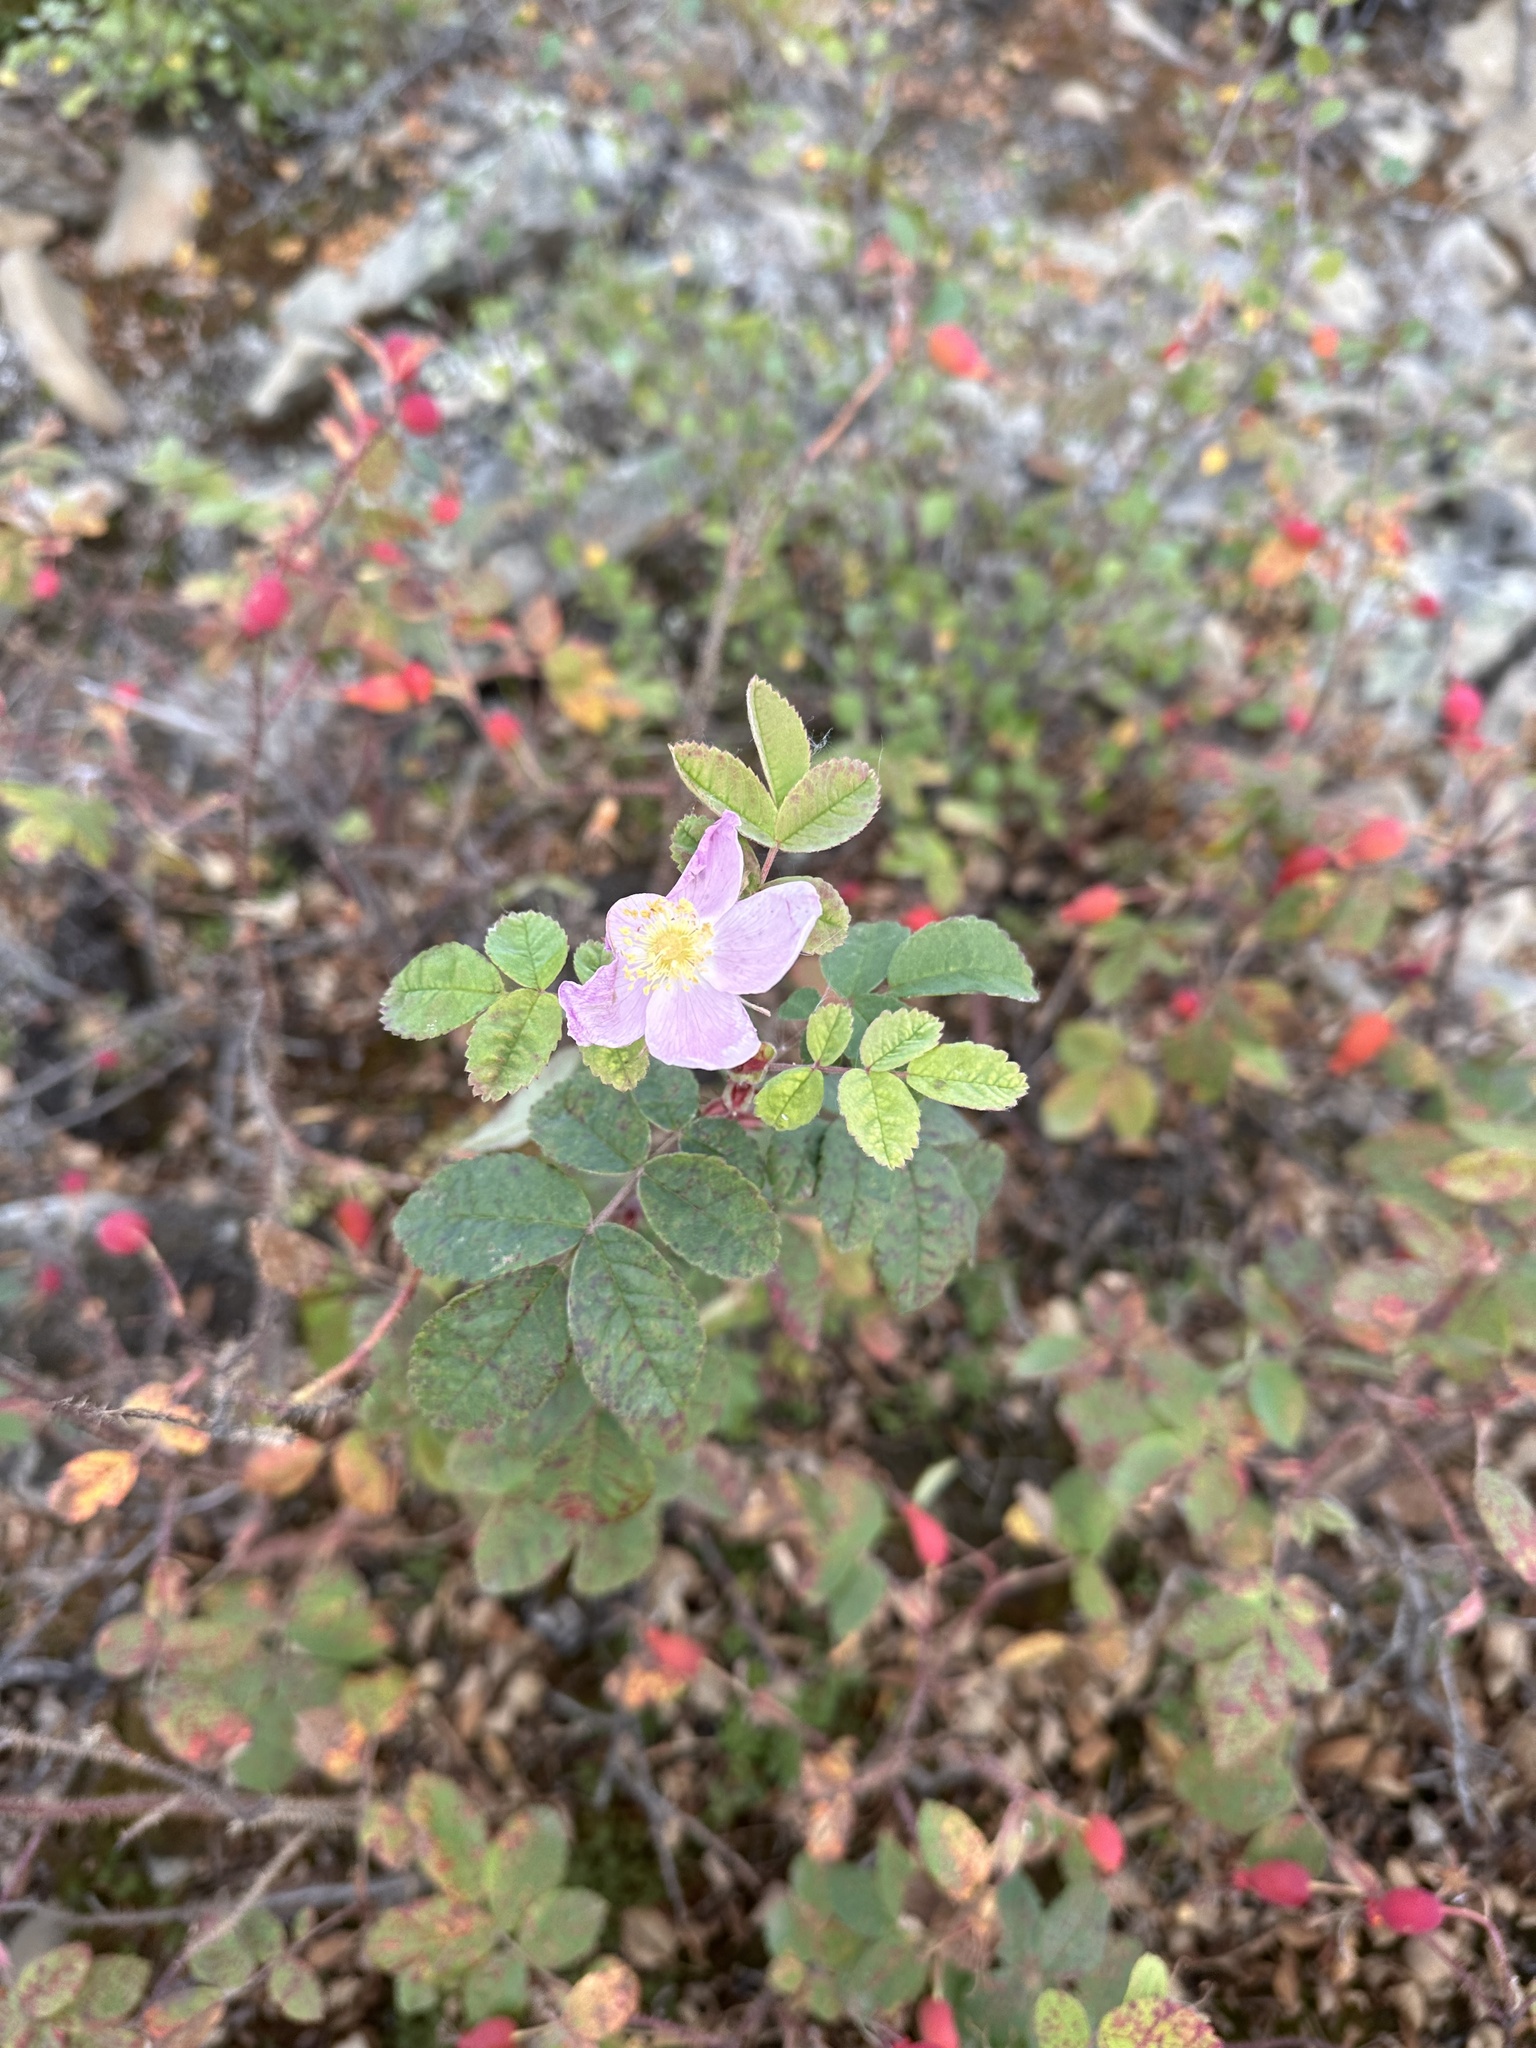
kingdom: Plantae
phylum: Tracheophyta
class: Magnoliopsida
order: Rosales
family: Rosaceae
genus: Rosa
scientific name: Rosa acicularis
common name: Prickly rose
